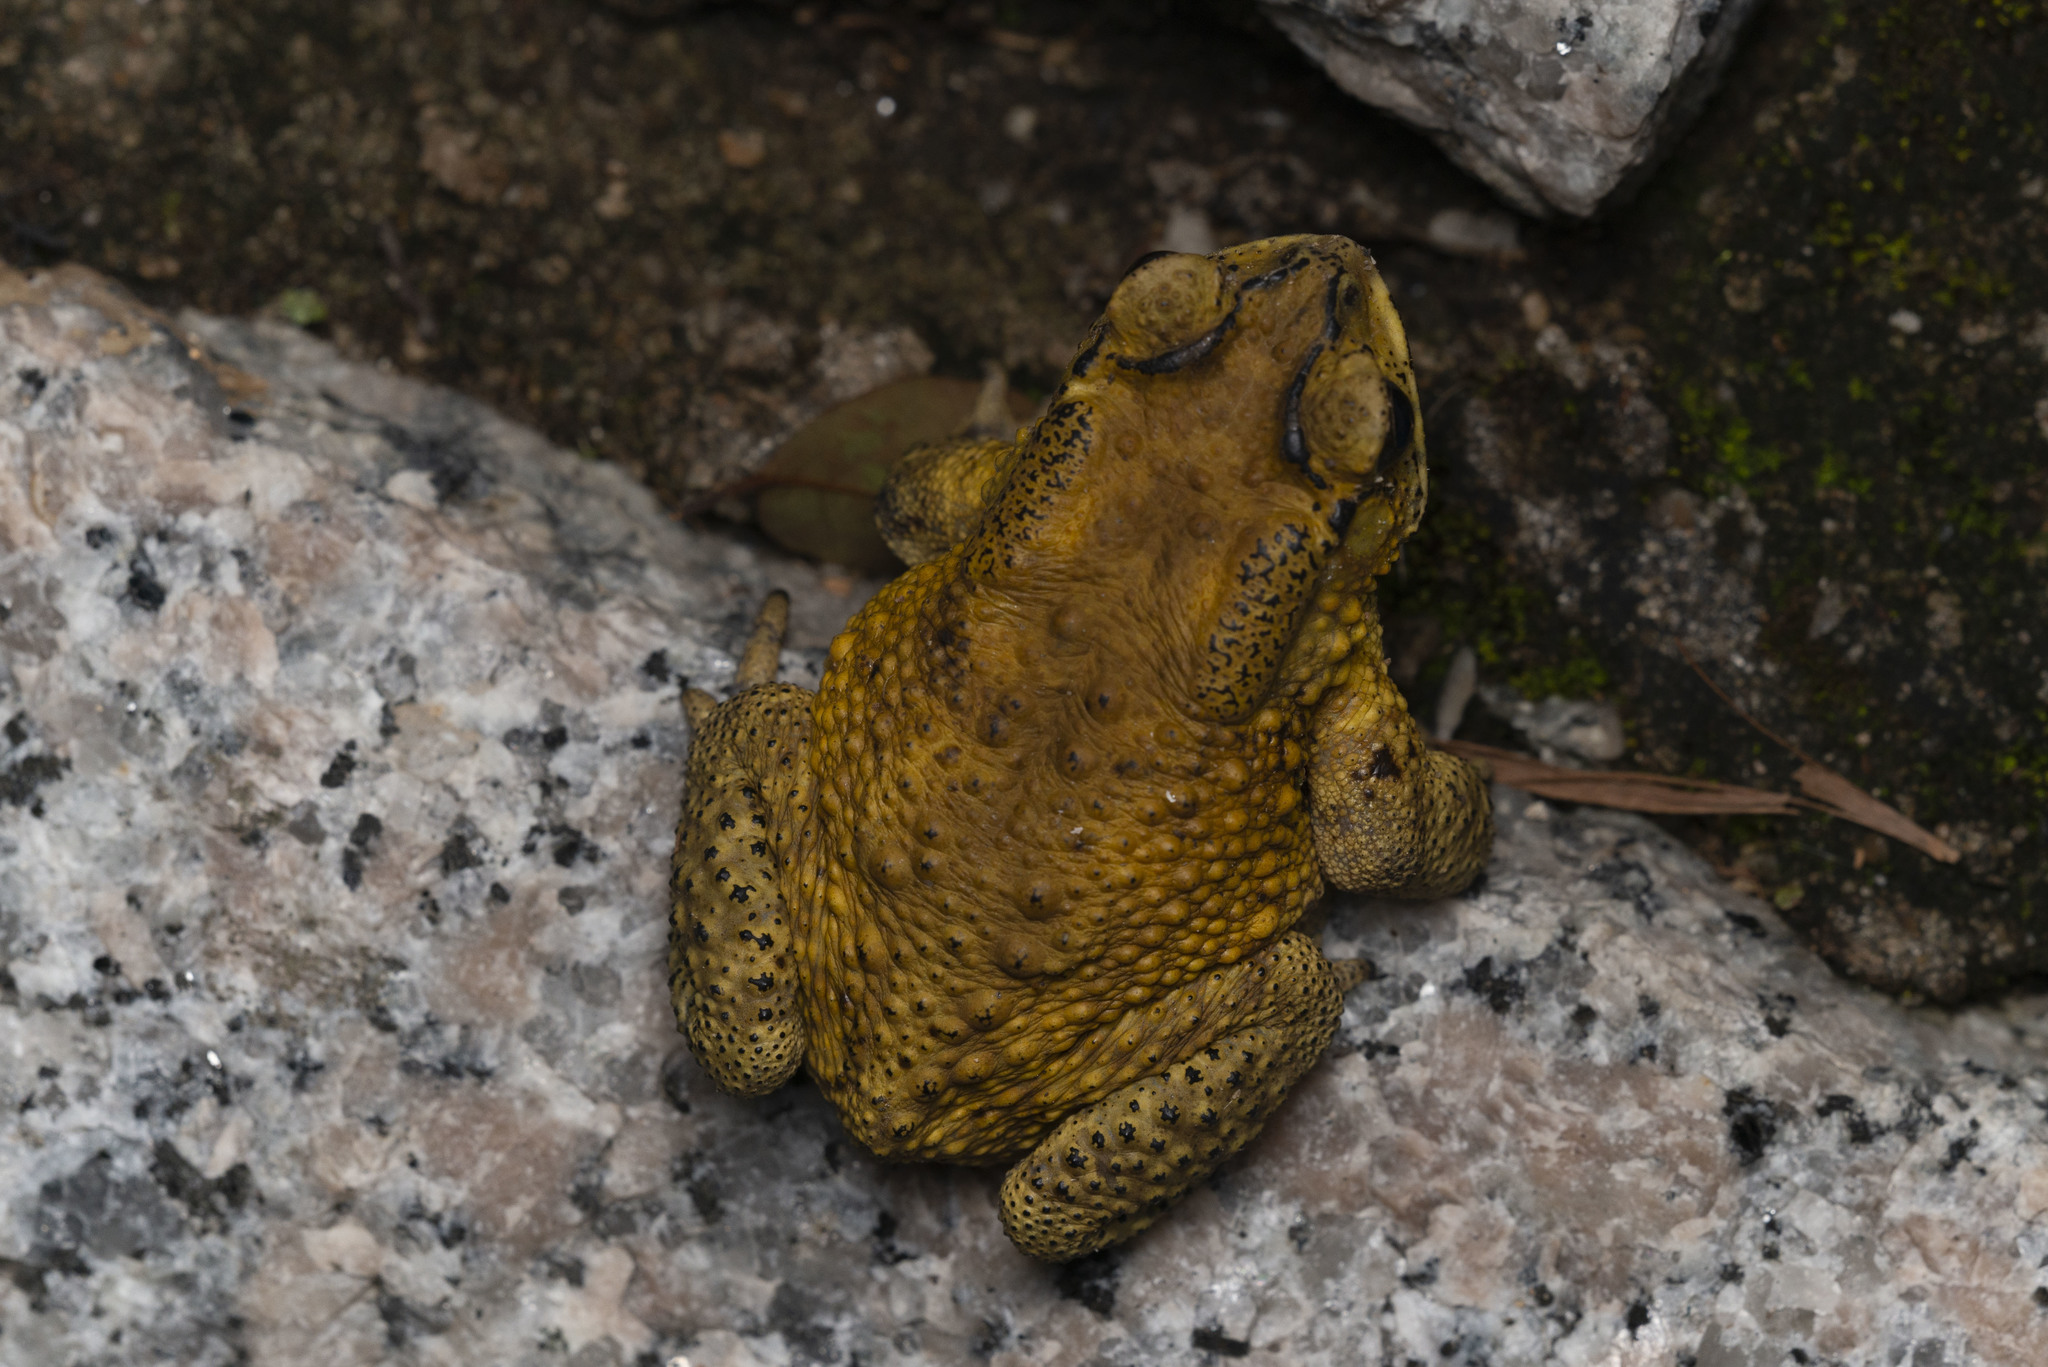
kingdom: Animalia
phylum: Chordata
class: Amphibia
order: Anura
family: Bufonidae
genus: Duttaphrynus
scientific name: Duttaphrynus melanostictus
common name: Common sunda toad
